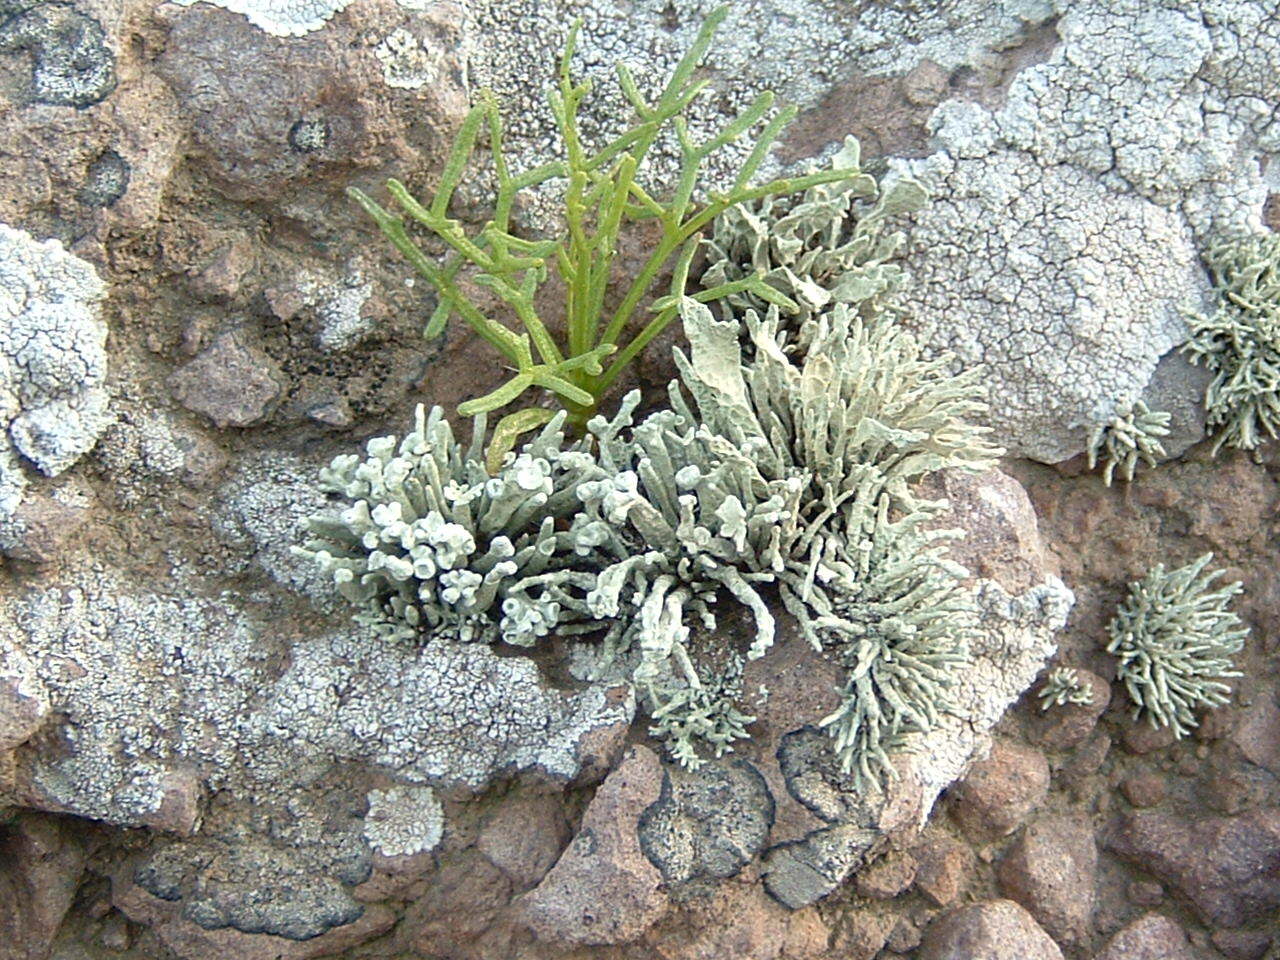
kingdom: Plantae
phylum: Tracheophyta
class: Magnoliopsida
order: Asterales
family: Asteraceae
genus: Coreopsis
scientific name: Coreopsis gigantea
